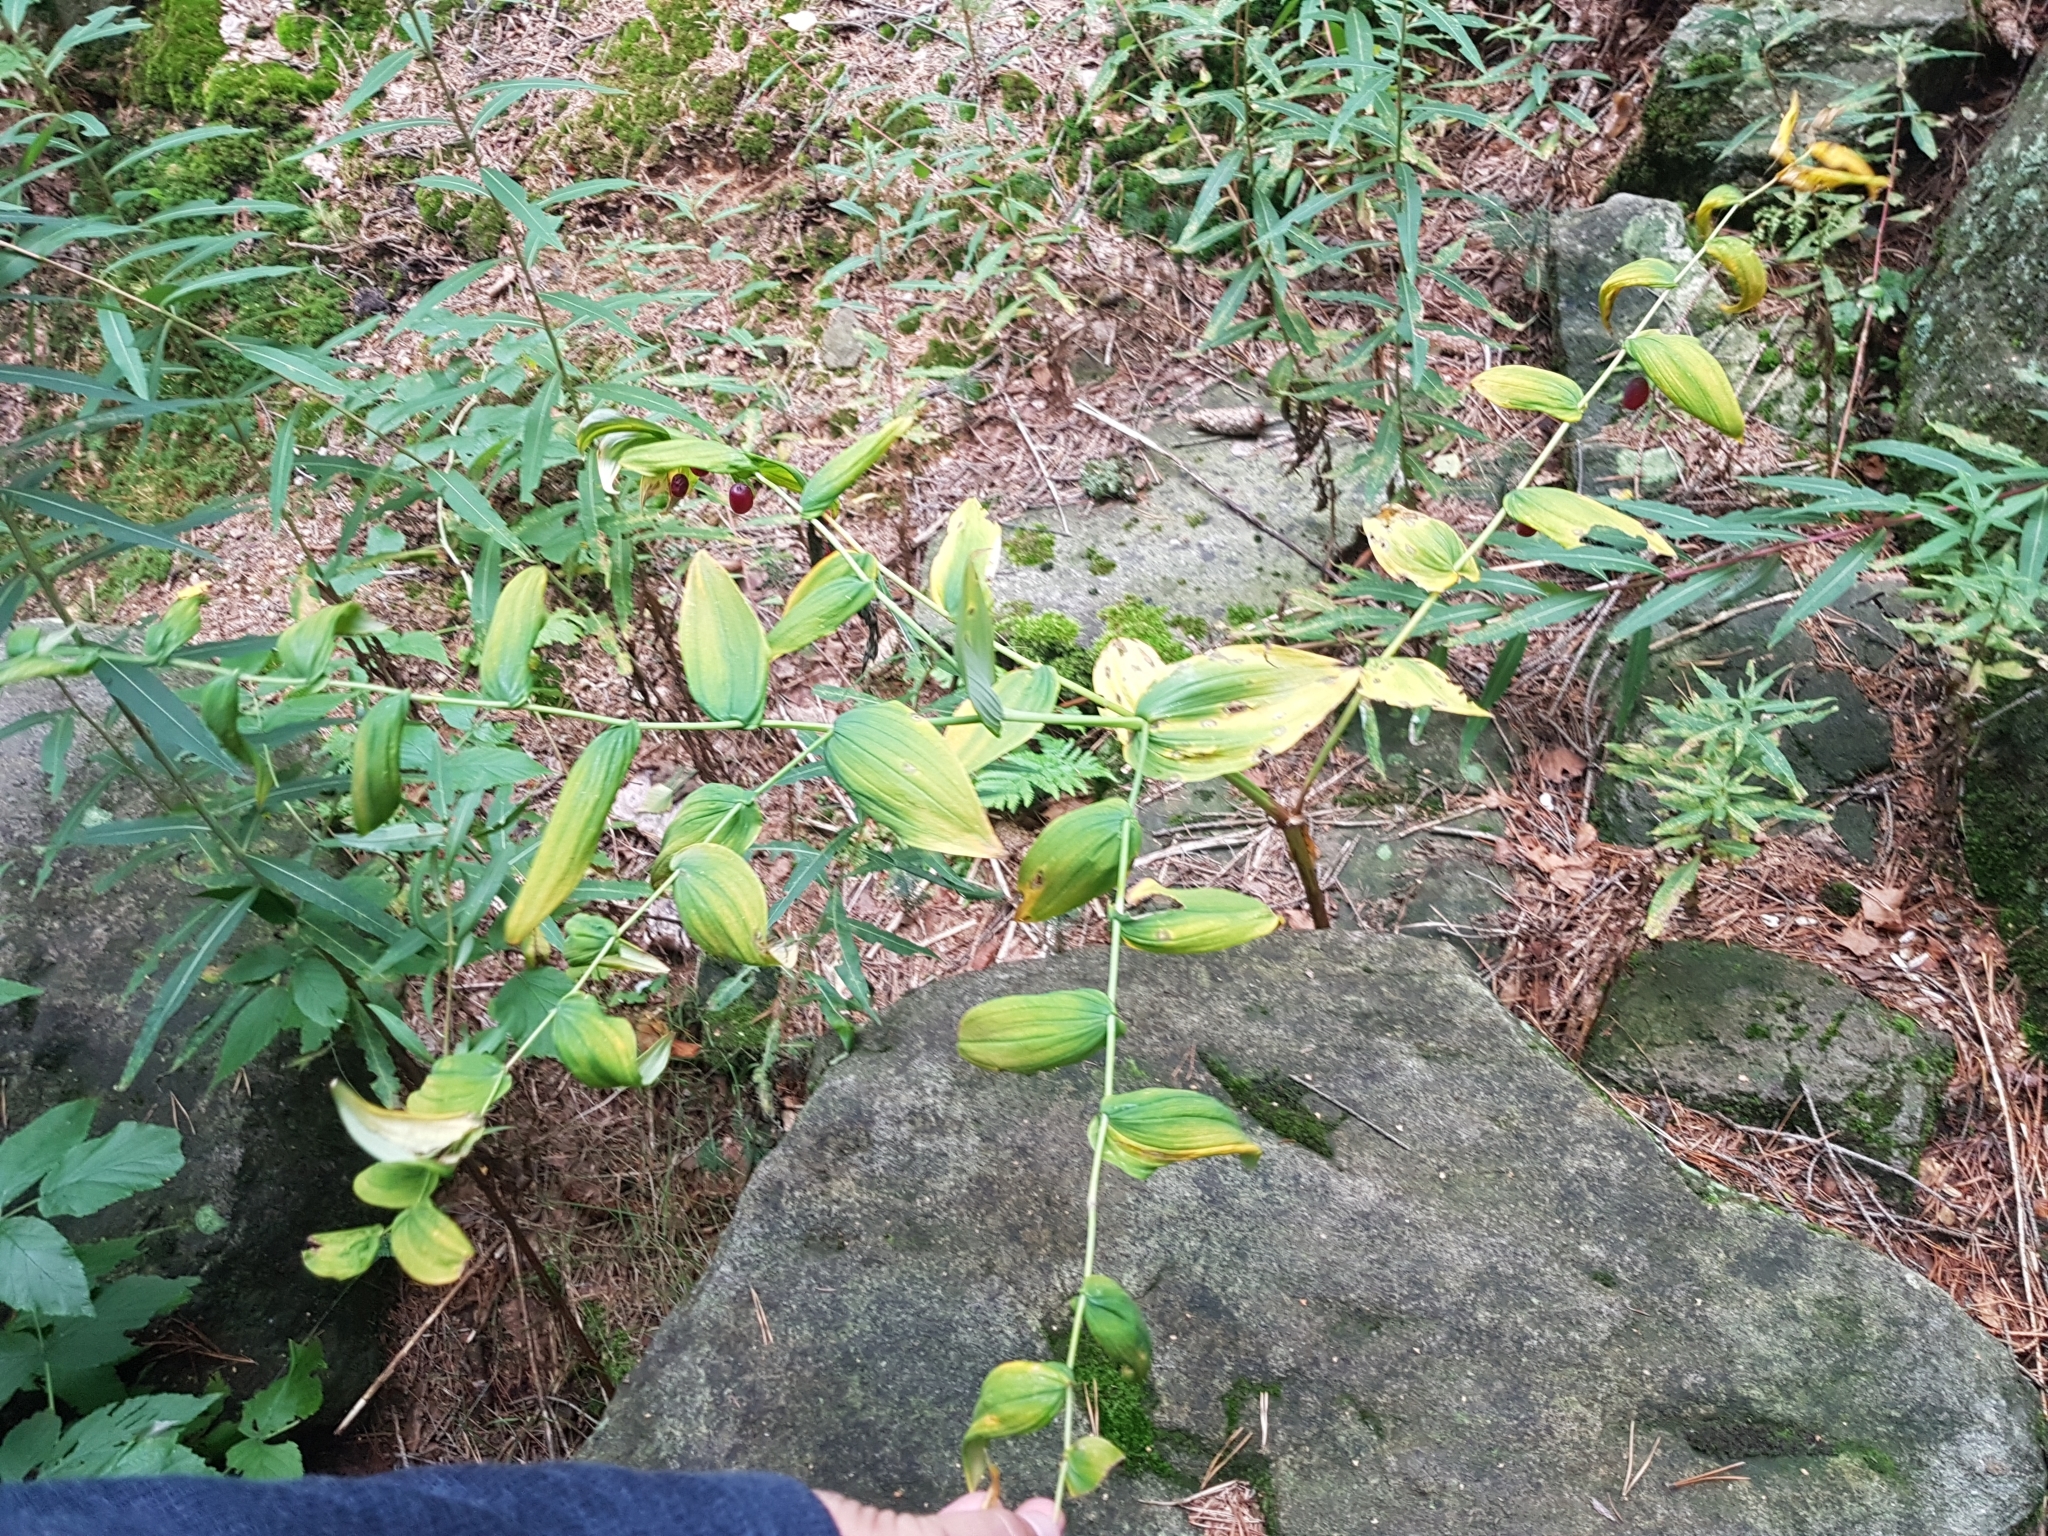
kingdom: Plantae
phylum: Tracheophyta
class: Liliopsida
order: Liliales
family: Liliaceae
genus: Streptopus
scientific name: Streptopus amplexifolius
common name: Clasp twisted stalk
